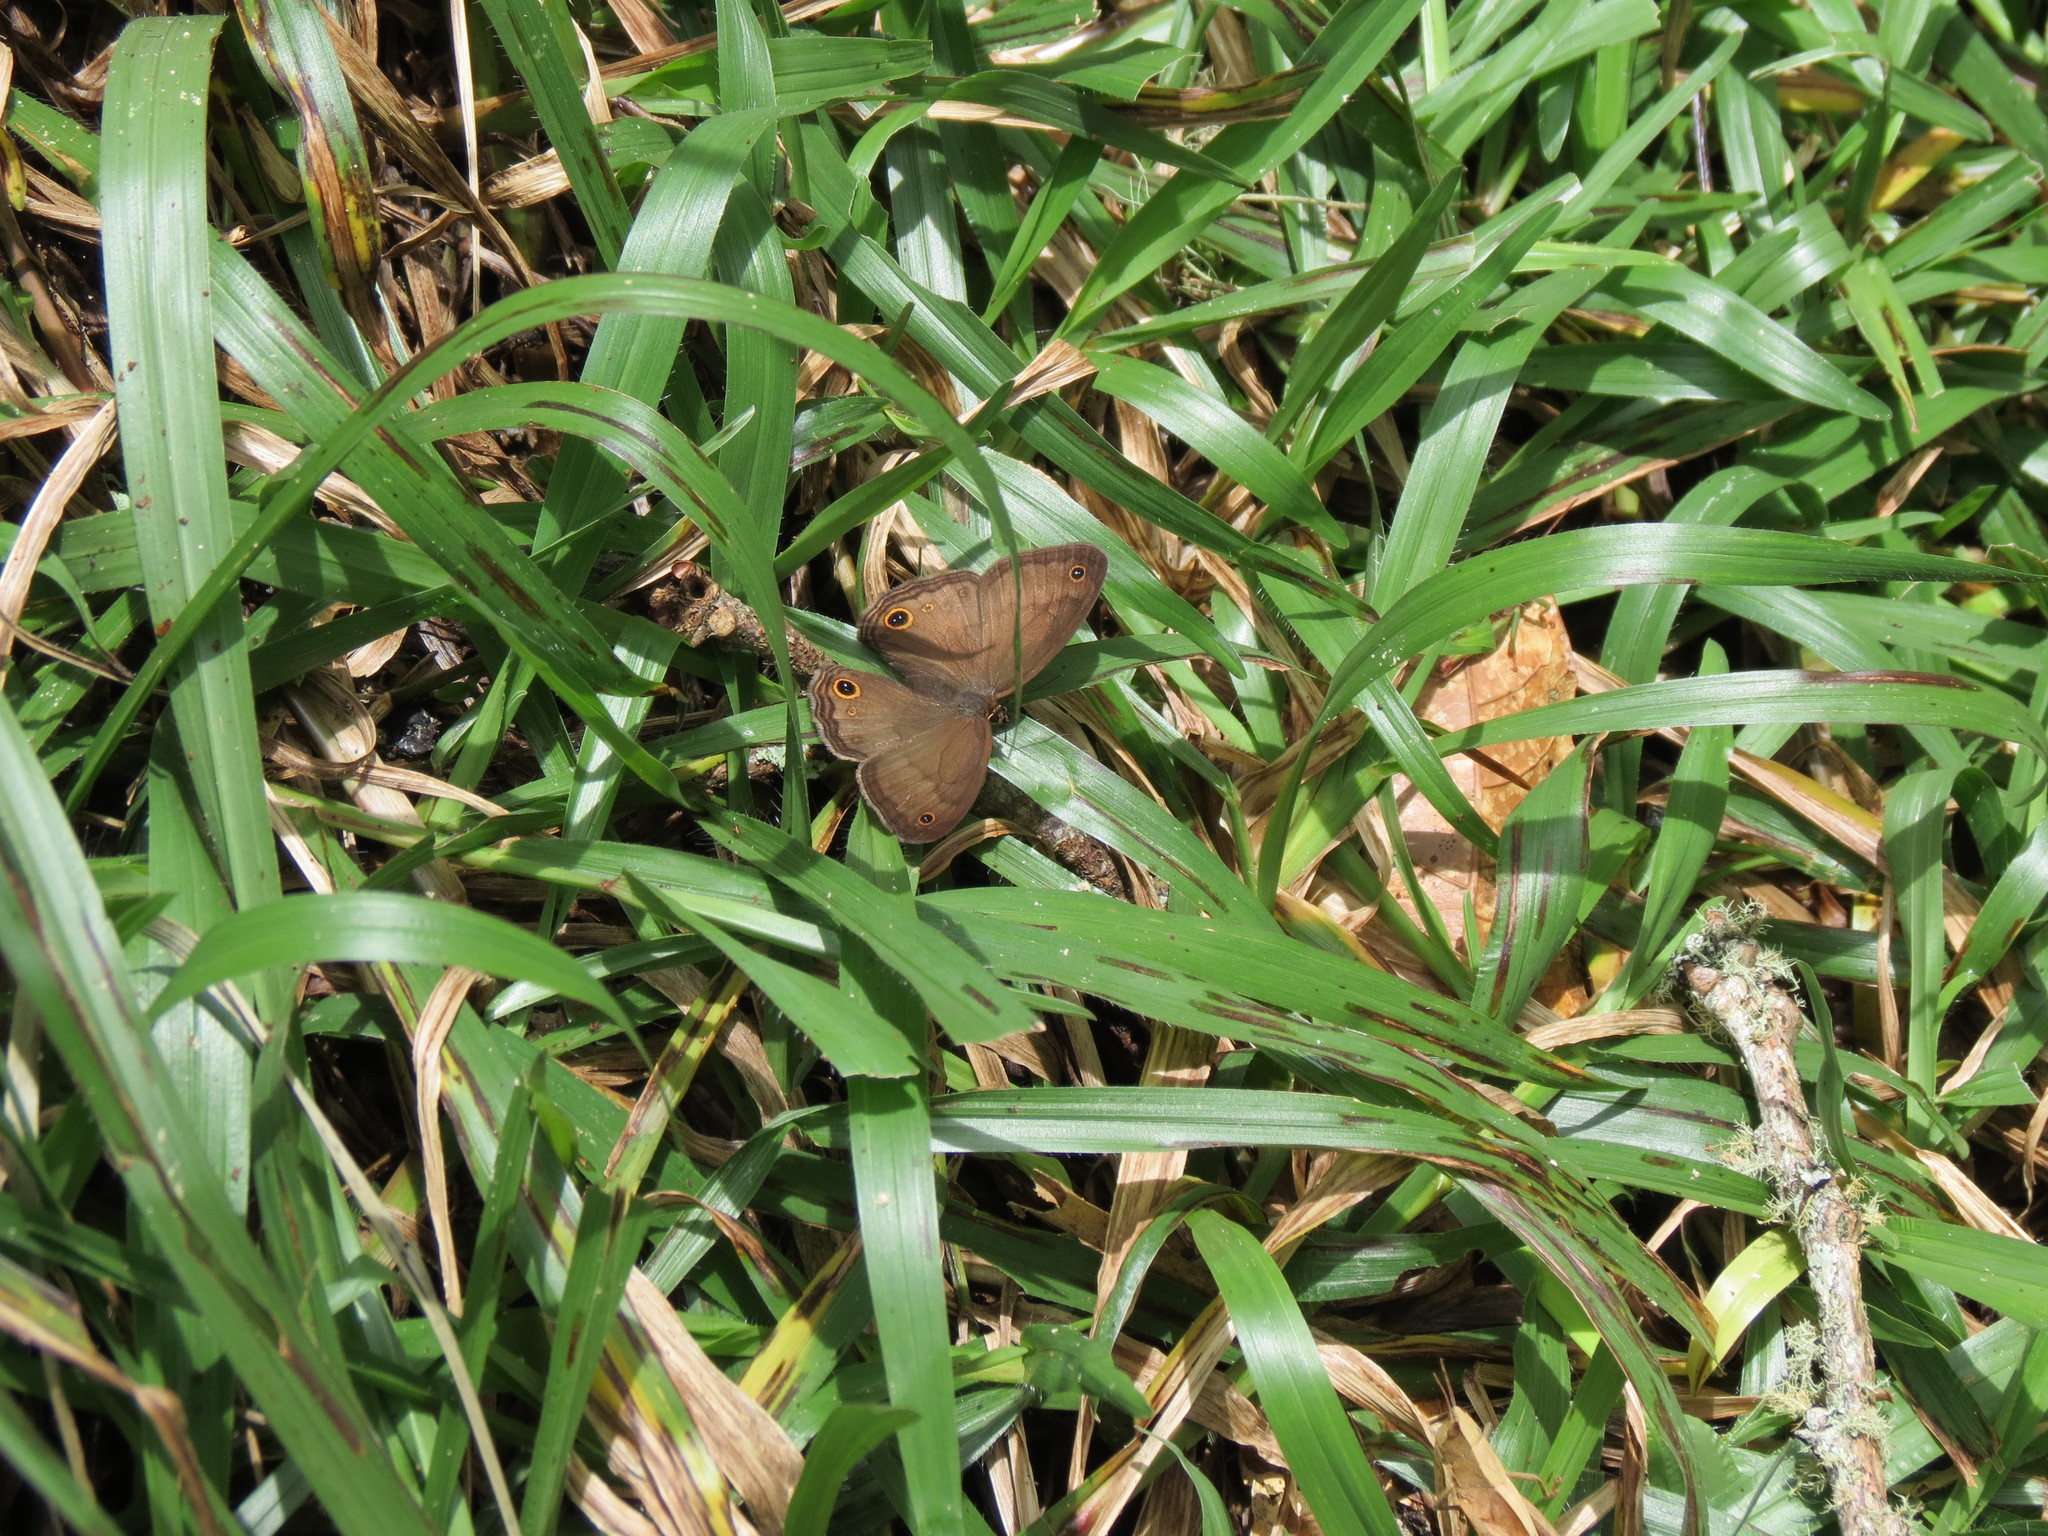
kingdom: Animalia
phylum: Arthropoda
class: Insecta
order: Lepidoptera
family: Nymphalidae
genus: Graphita
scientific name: Graphita griphe
